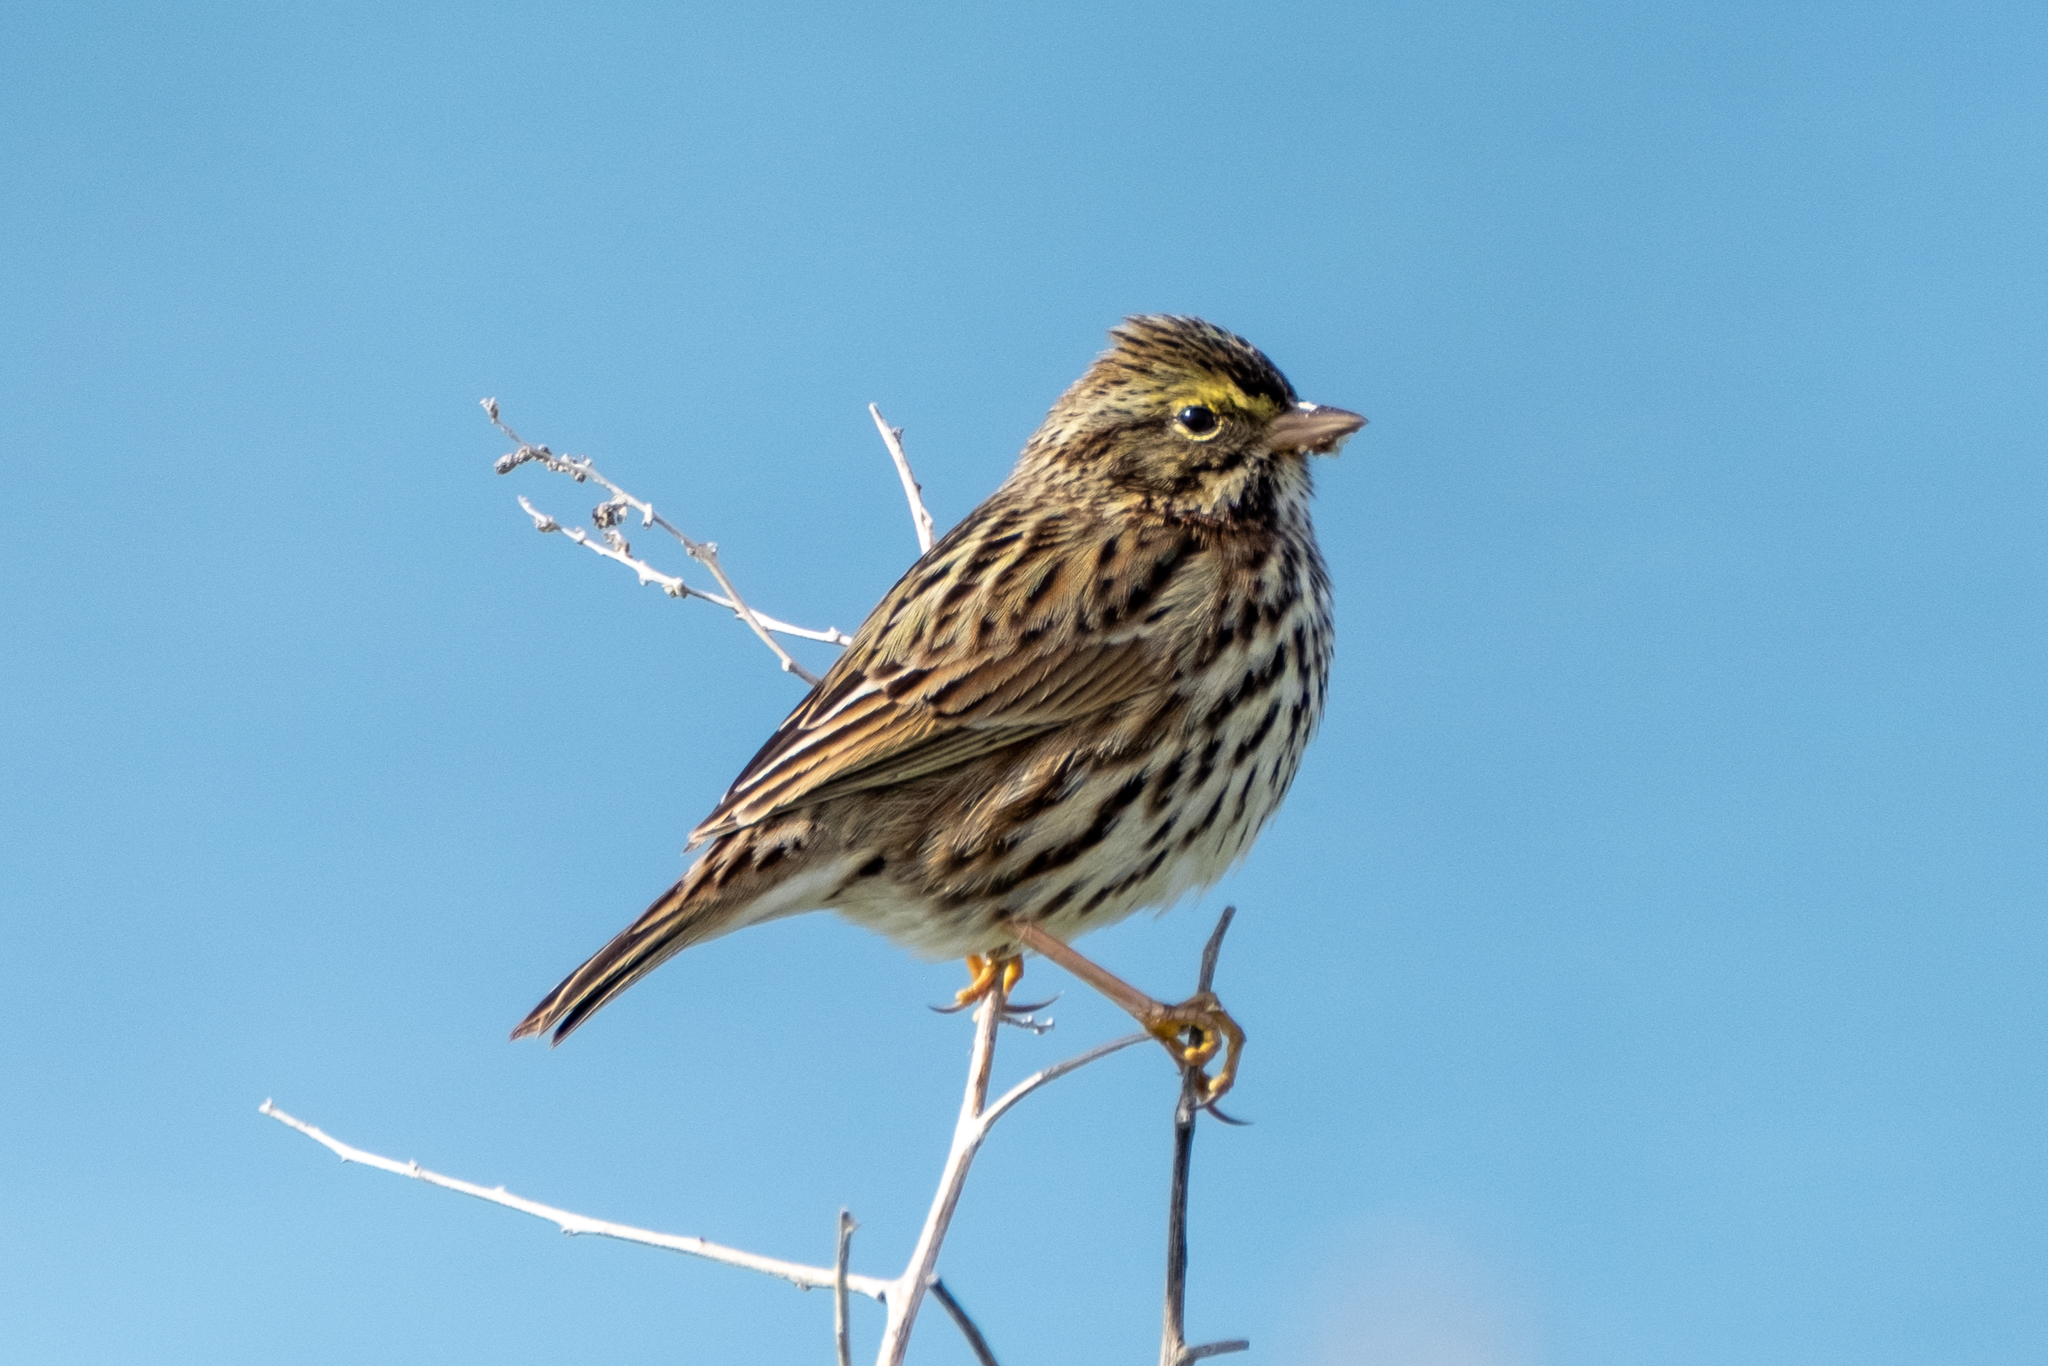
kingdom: Animalia
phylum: Chordata
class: Aves
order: Passeriformes
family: Passerellidae
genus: Passerculus
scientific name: Passerculus sandwichensis
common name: Savannah sparrow
